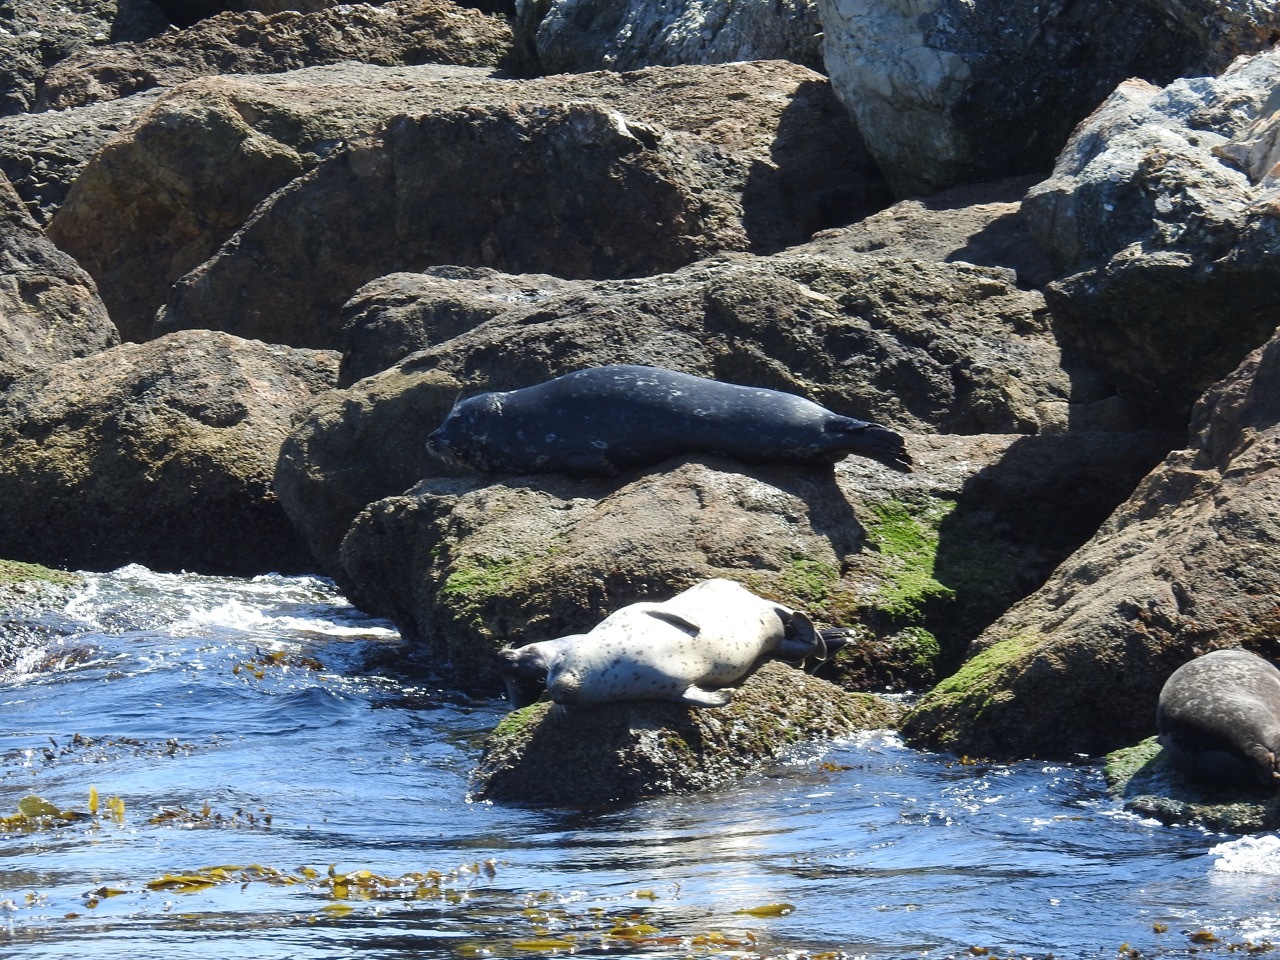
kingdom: Animalia
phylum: Chordata
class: Mammalia
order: Carnivora
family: Phocidae
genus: Phoca
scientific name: Phoca vitulina
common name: Harbor seal
